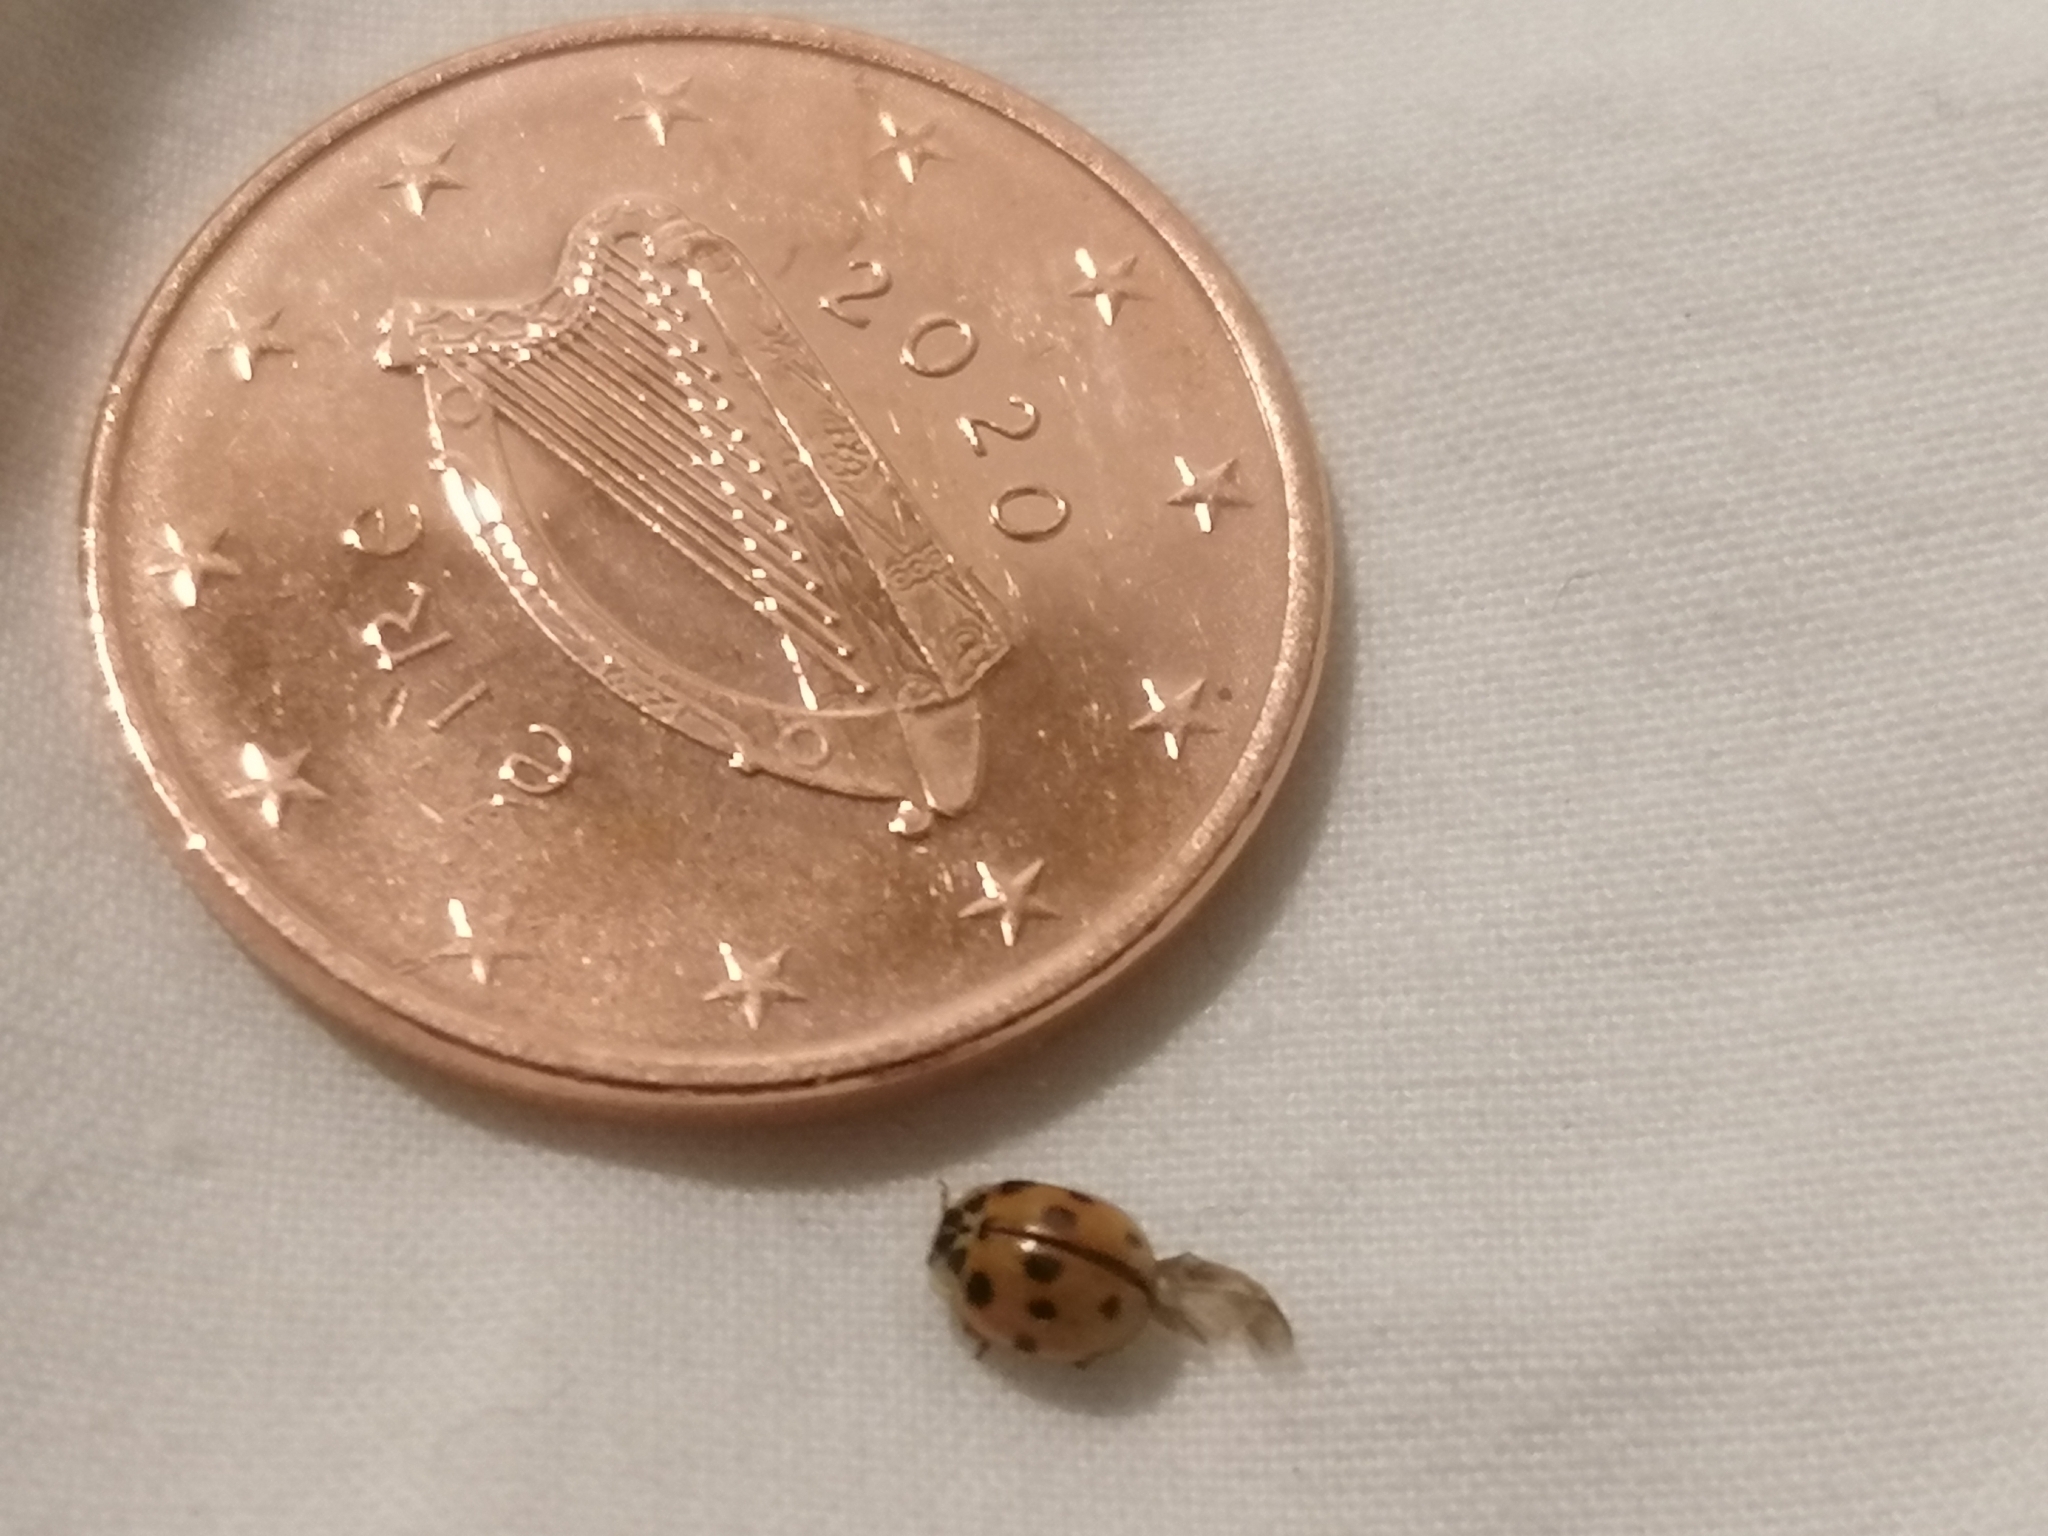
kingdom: Animalia
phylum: Arthropoda
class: Insecta
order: Coleoptera
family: Coccinellidae
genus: Adalia
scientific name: Adalia decempunctata
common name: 10-spot ladybird
